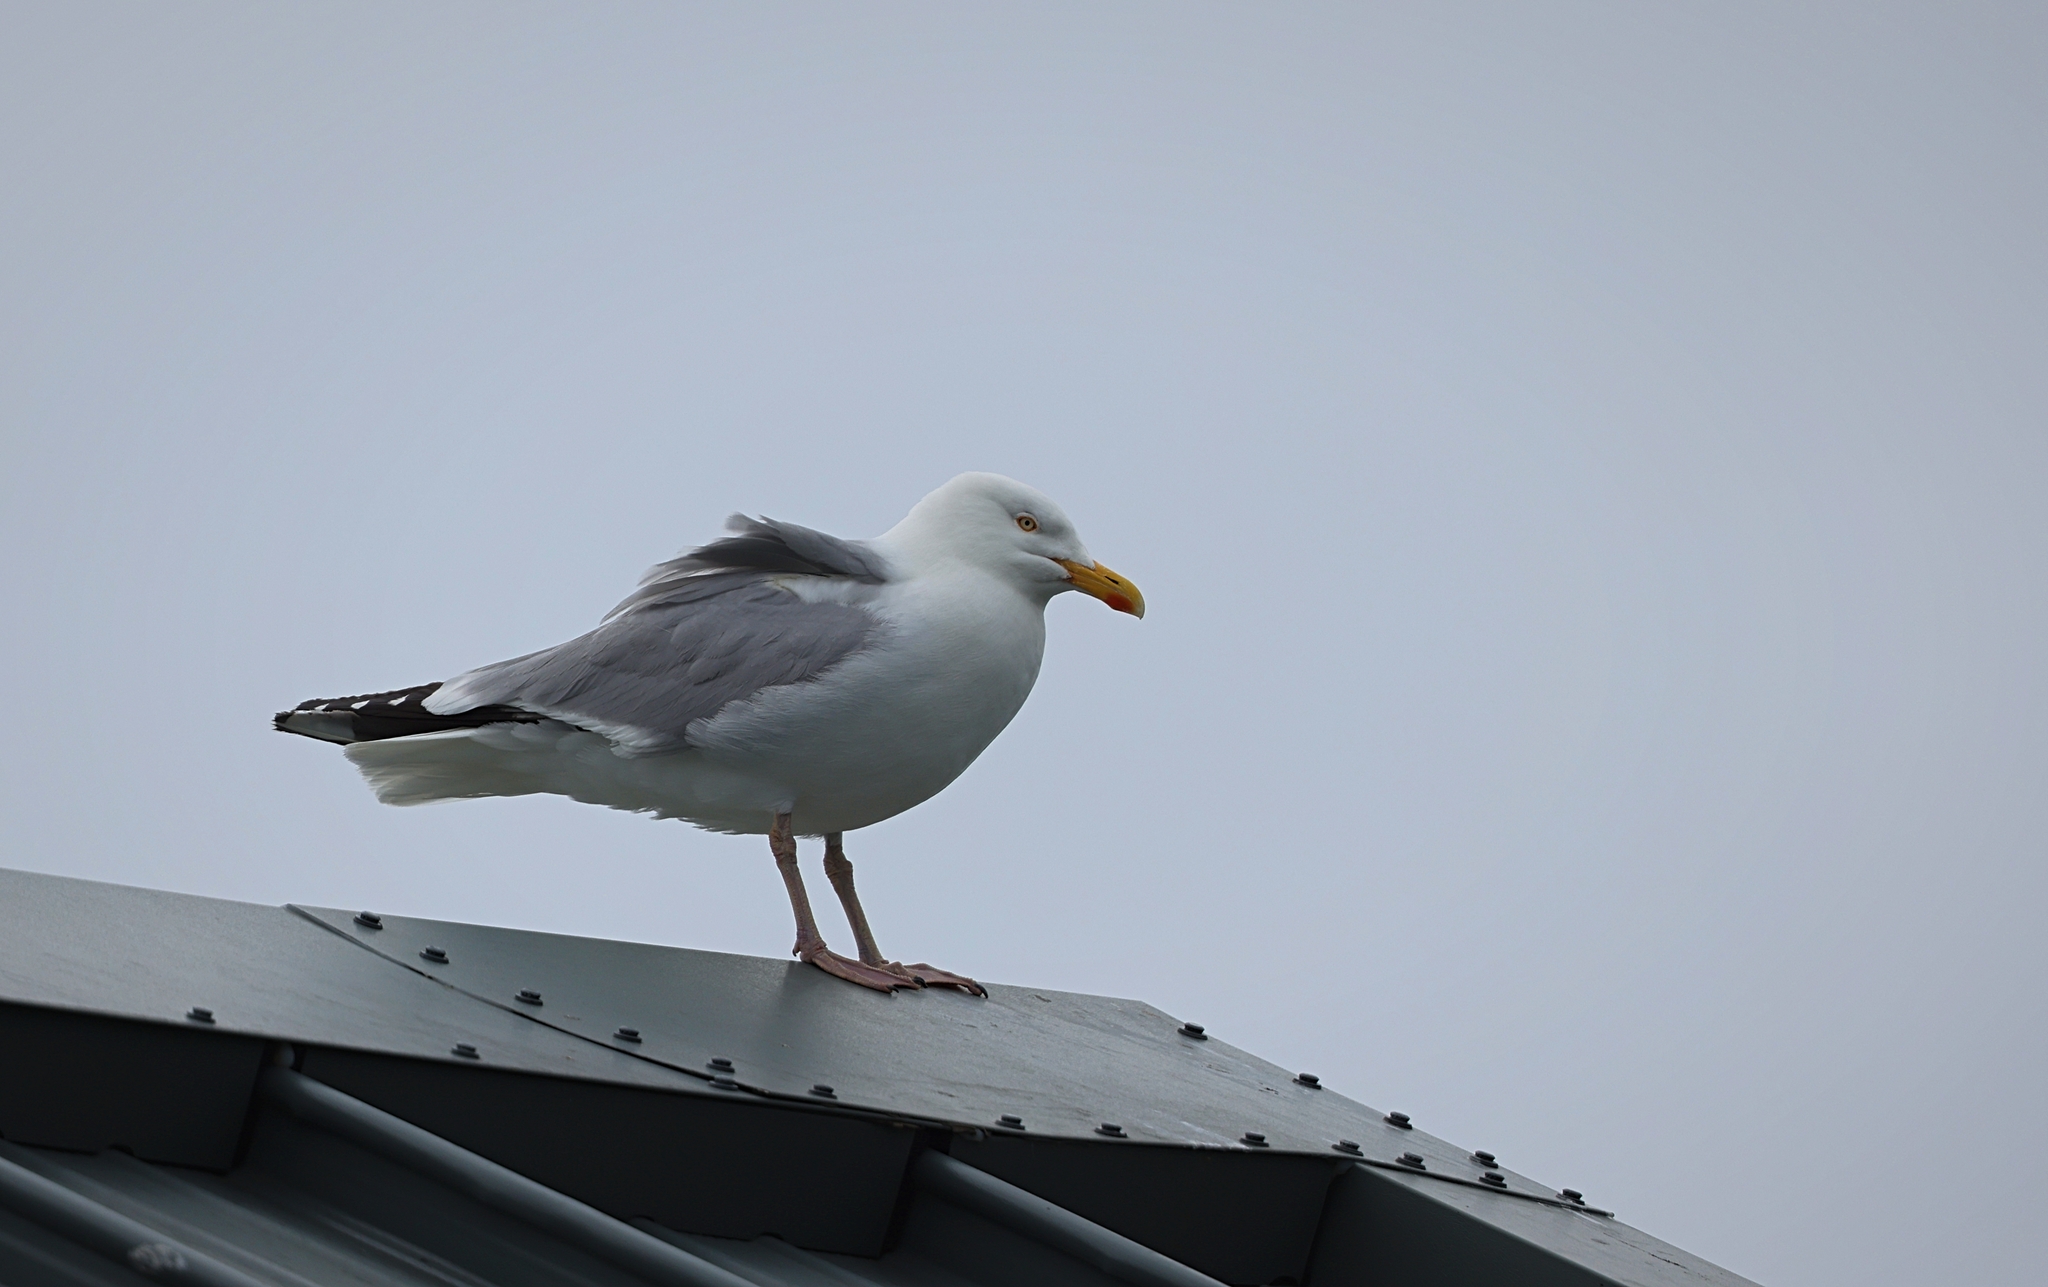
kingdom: Animalia
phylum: Chordata
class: Aves
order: Charadriiformes
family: Laridae
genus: Larus
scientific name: Larus argentatus
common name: Herring gull
